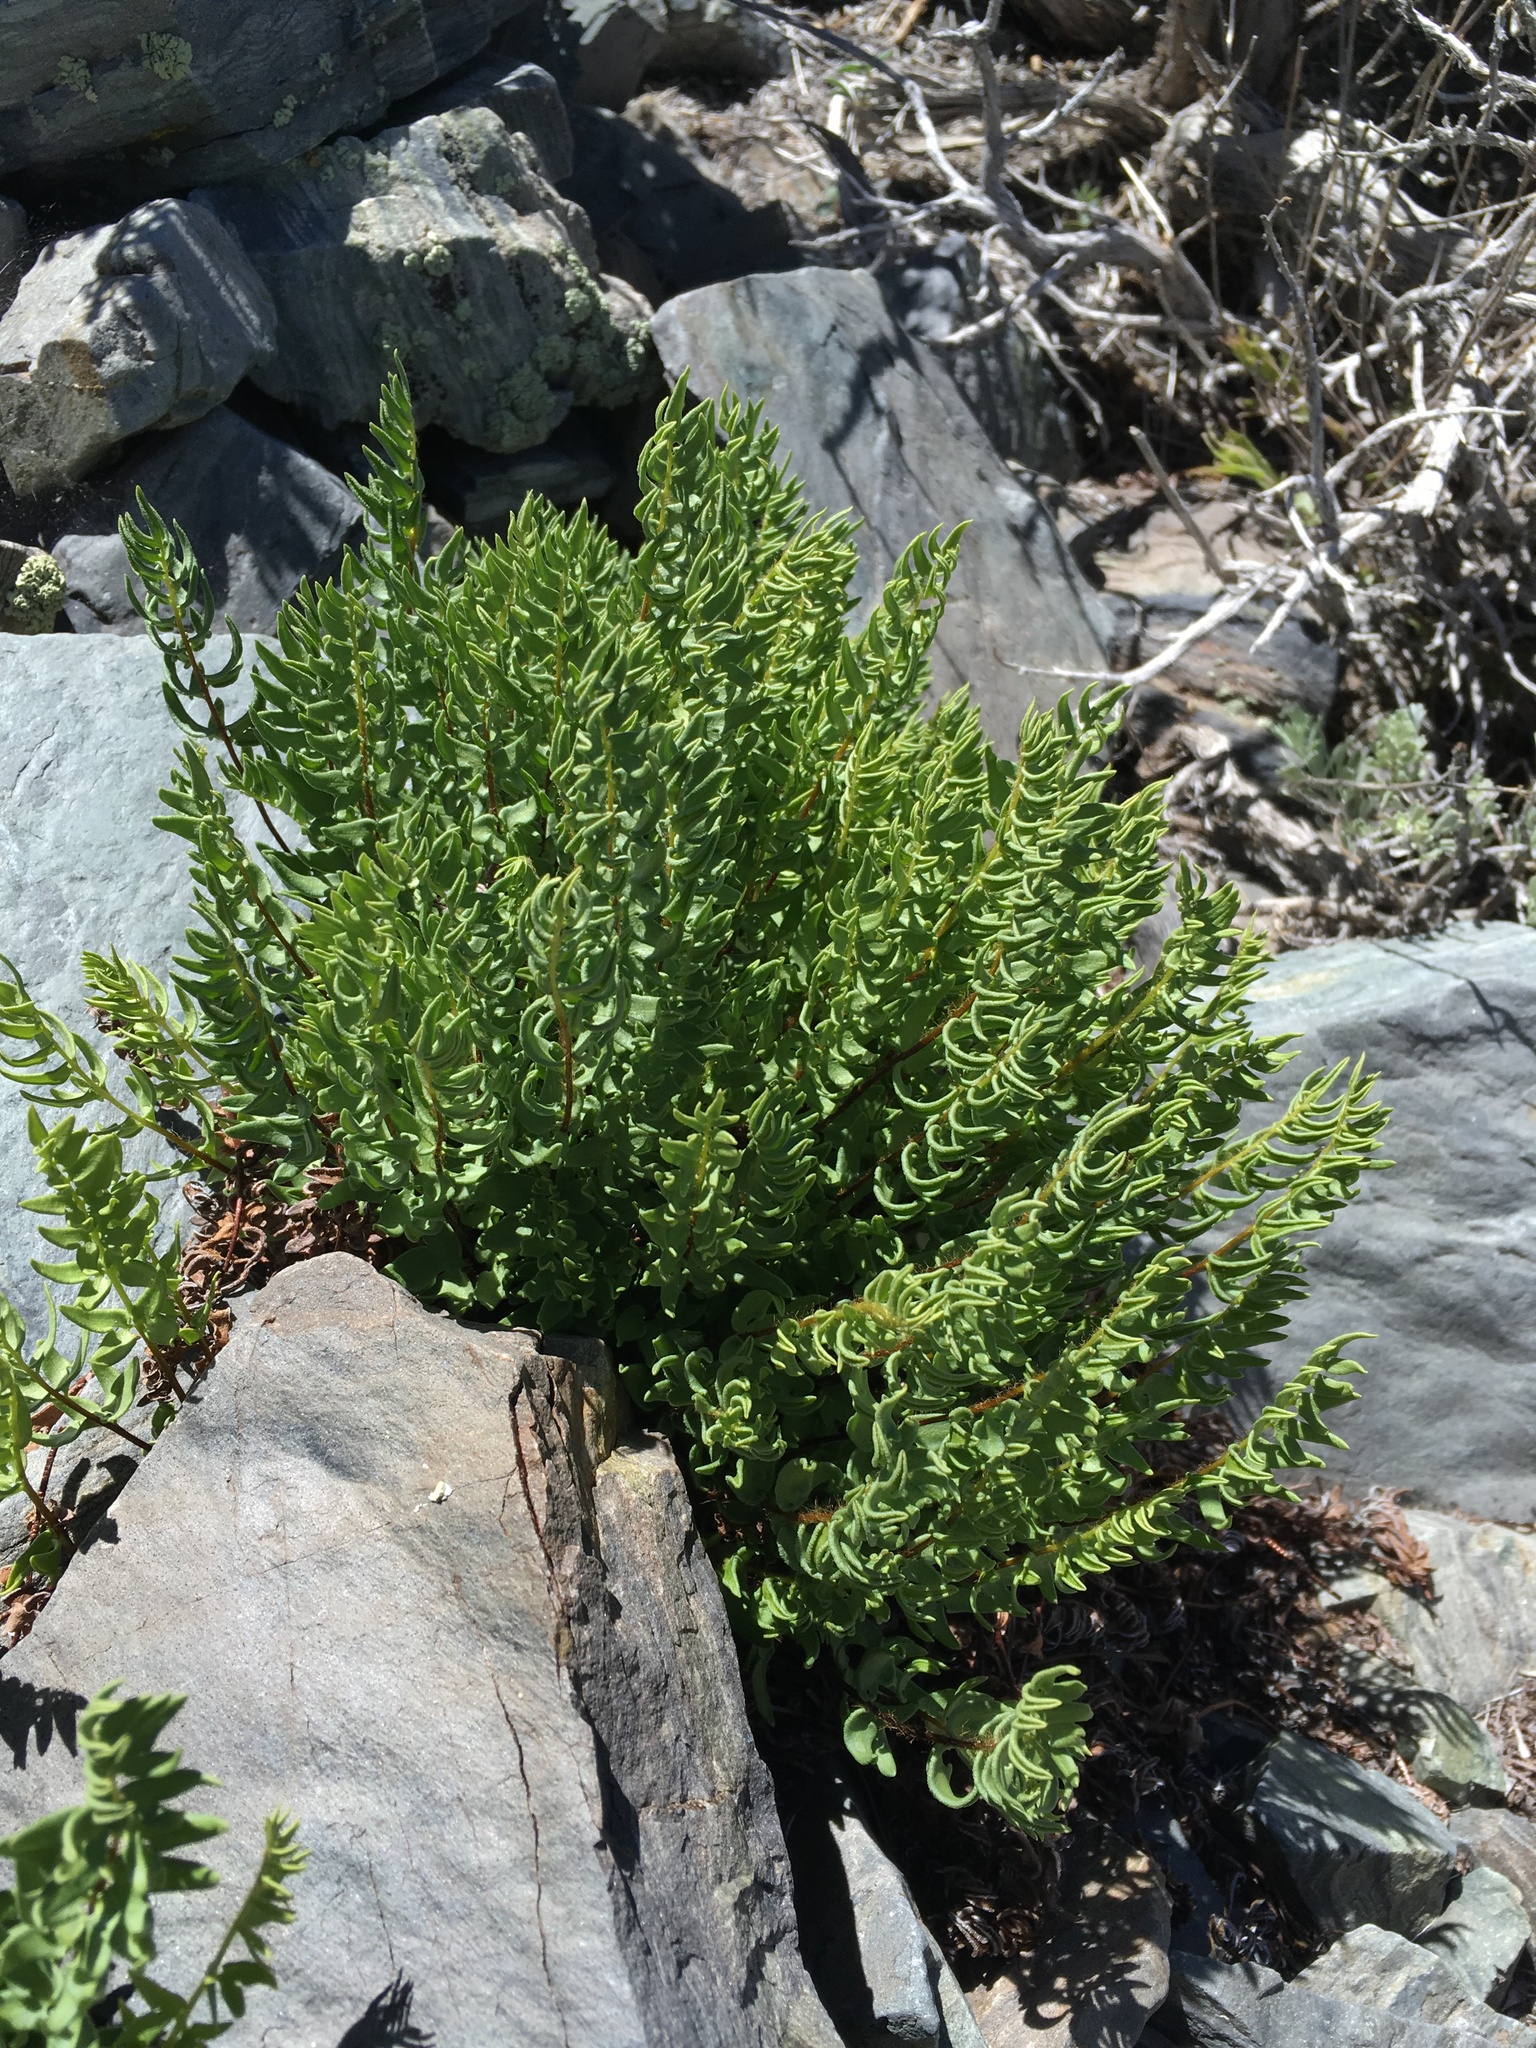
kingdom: Plantae
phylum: Tracheophyta
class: Polypodiopsida
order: Polypodiales
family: Pteridaceae
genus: Pellaea
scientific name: Pellaea breweri
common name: Brewer's cliffbrake
